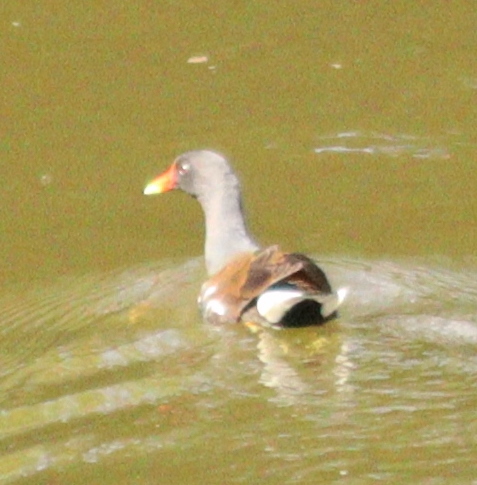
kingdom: Animalia
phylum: Chordata
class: Aves
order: Gruiformes
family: Rallidae
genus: Gallinula
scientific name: Gallinula chloropus
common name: Common moorhen
